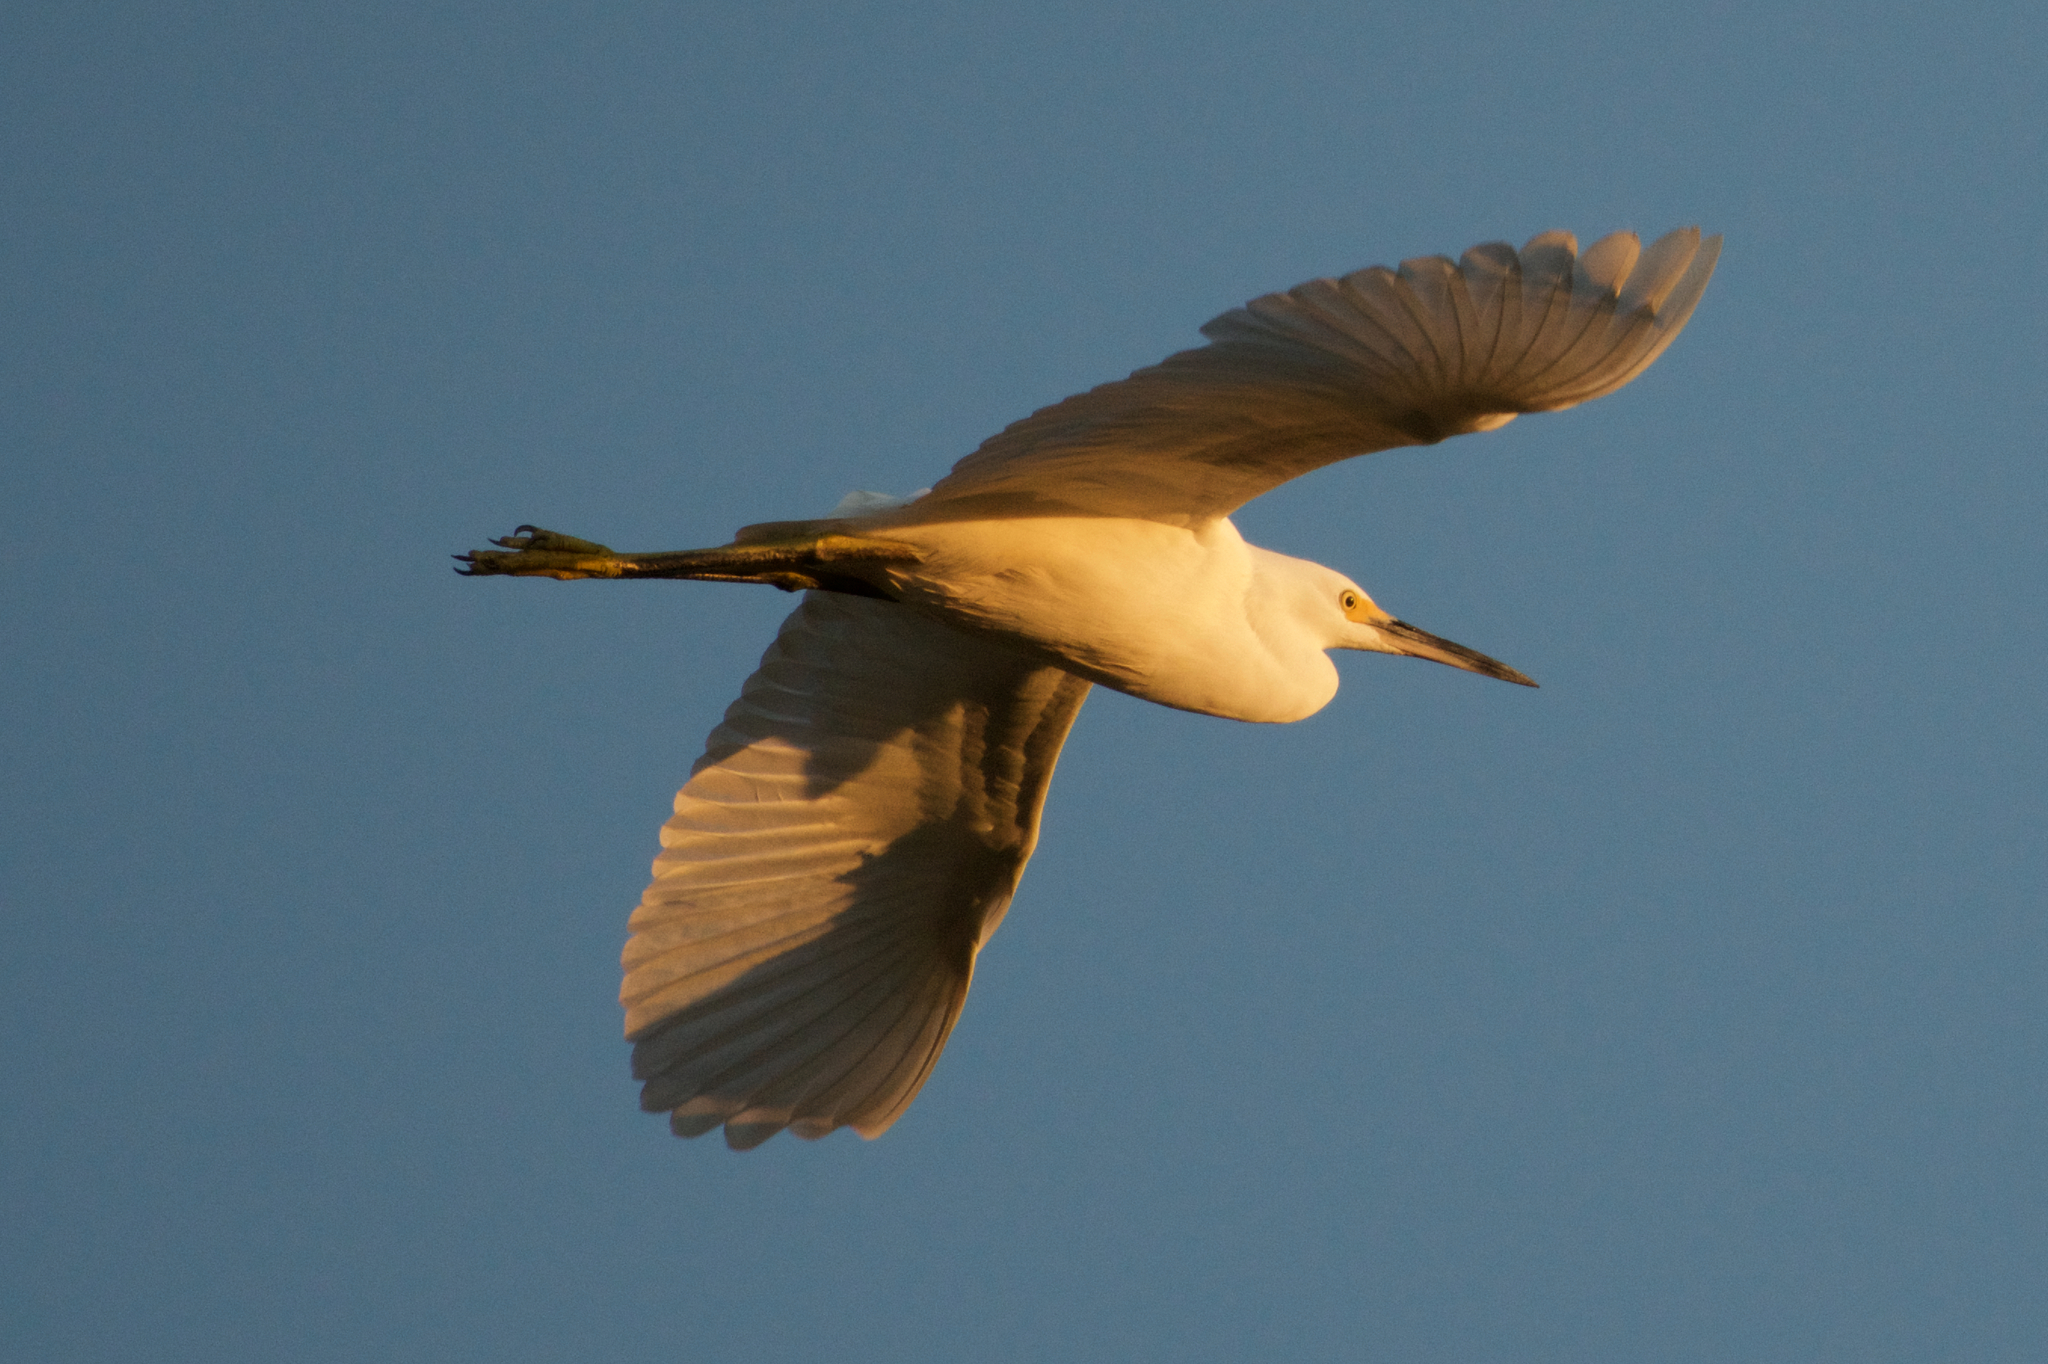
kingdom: Animalia
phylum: Chordata
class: Aves
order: Pelecaniformes
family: Ardeidae
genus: Egretta
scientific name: Egretta thula
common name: Snowy egret
